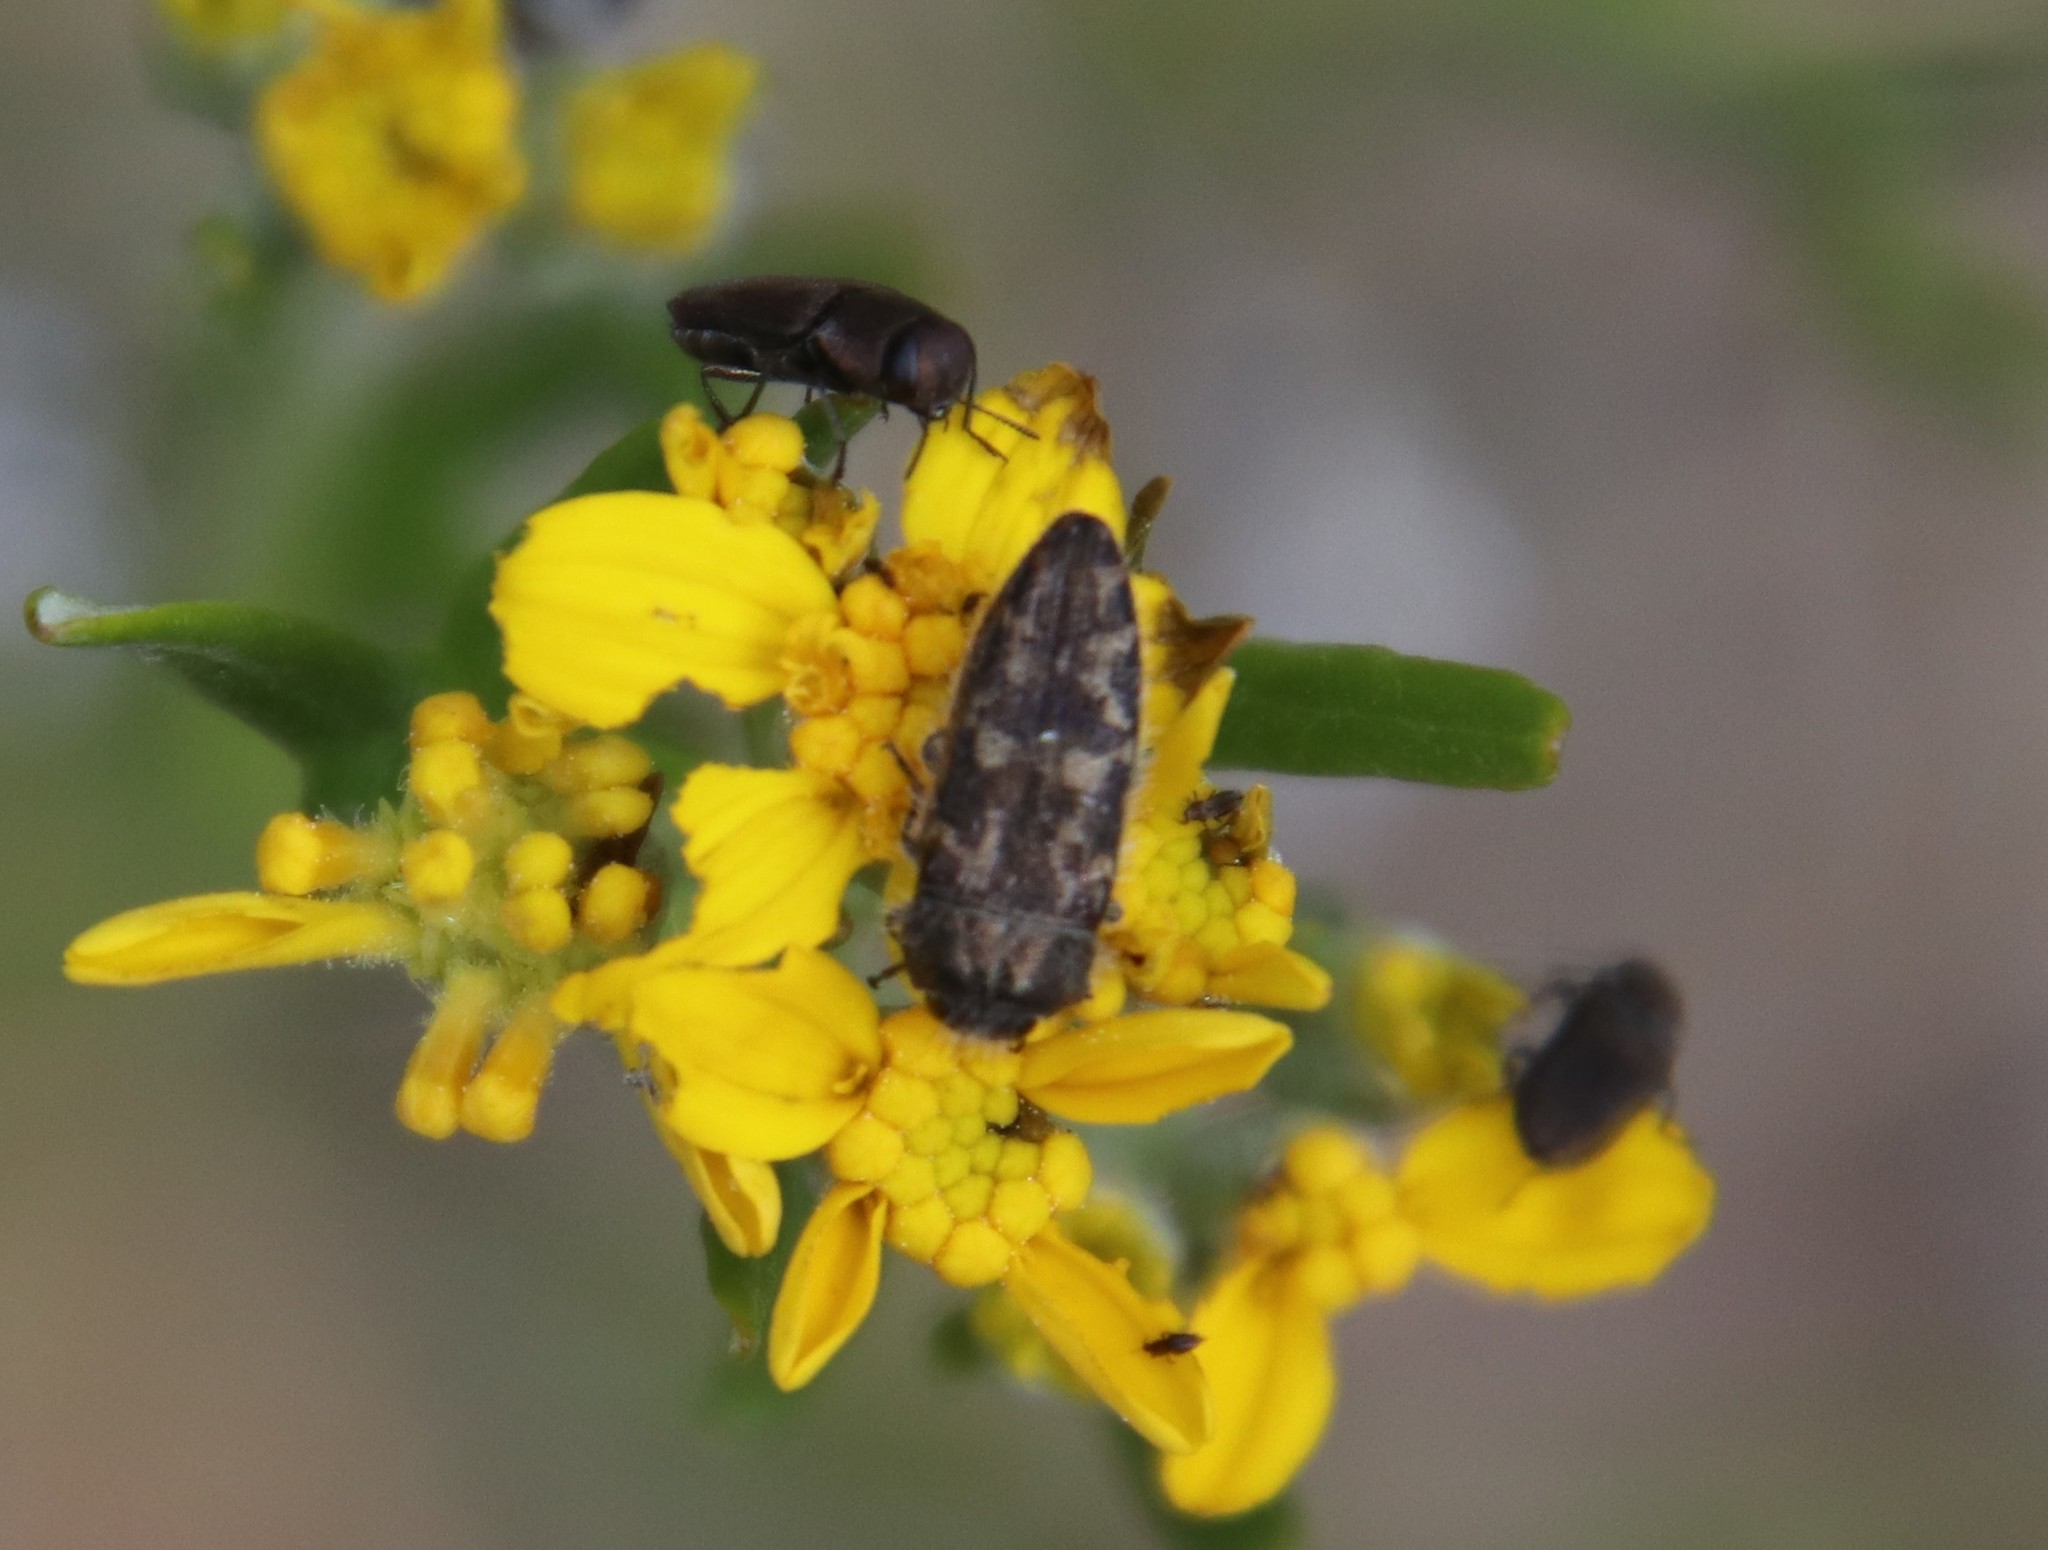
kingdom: Animalia
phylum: Arthropoda
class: Insecta
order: Coleoptera
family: Buprestidae
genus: Acmaeodera
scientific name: Acmaeodera retifera
